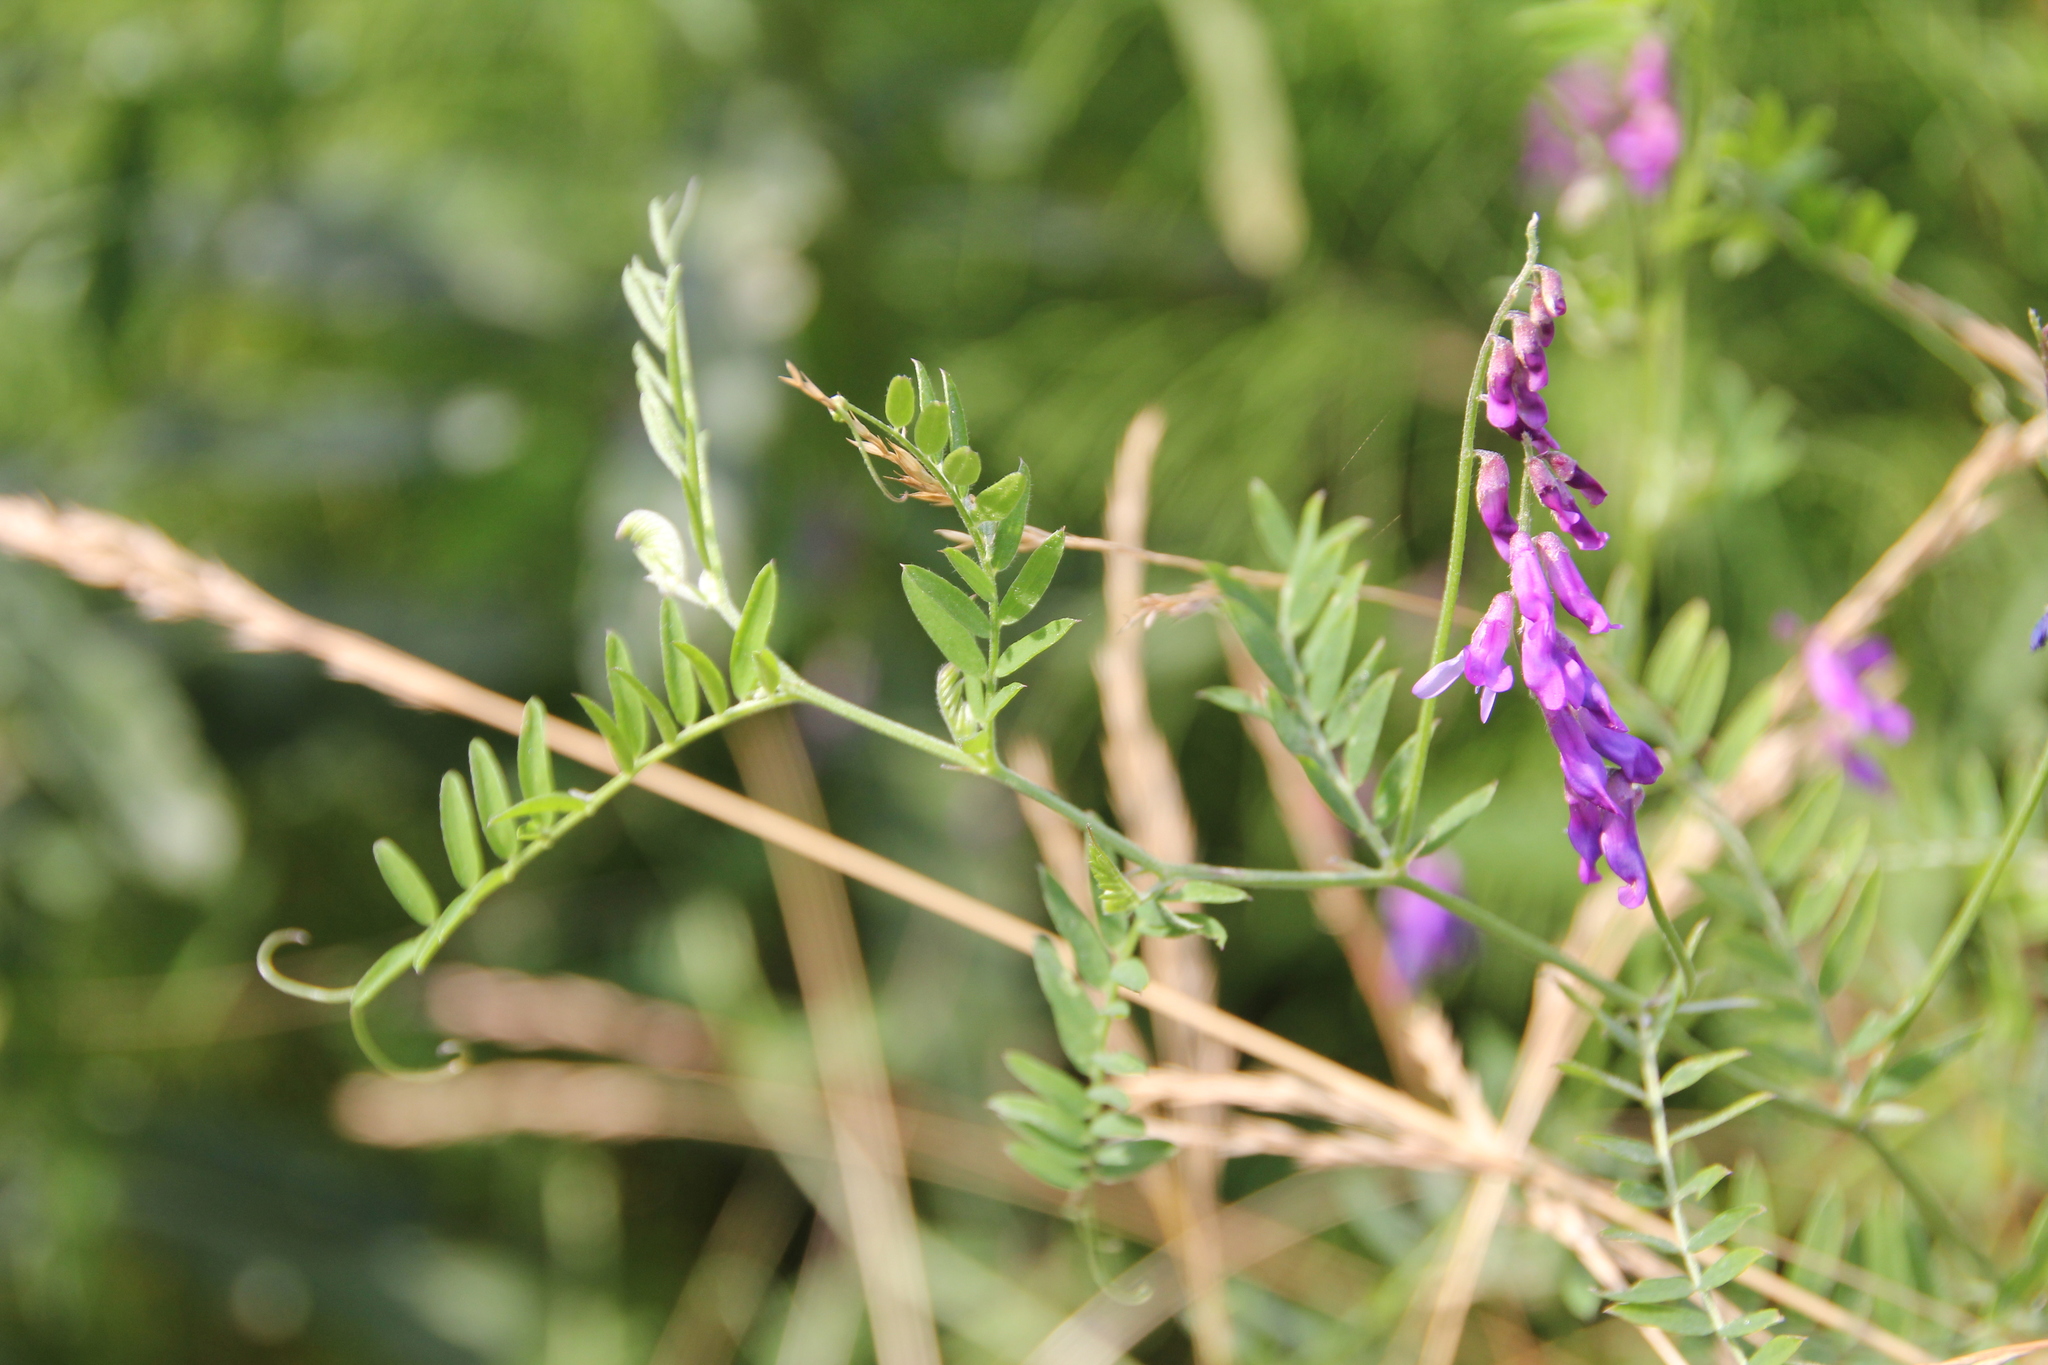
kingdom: Plantae
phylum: Tracheophyta
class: Magnoliopsida
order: Fabales
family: Fabaceae
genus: Vicia
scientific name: Vicia cracca
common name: Bird vetch
